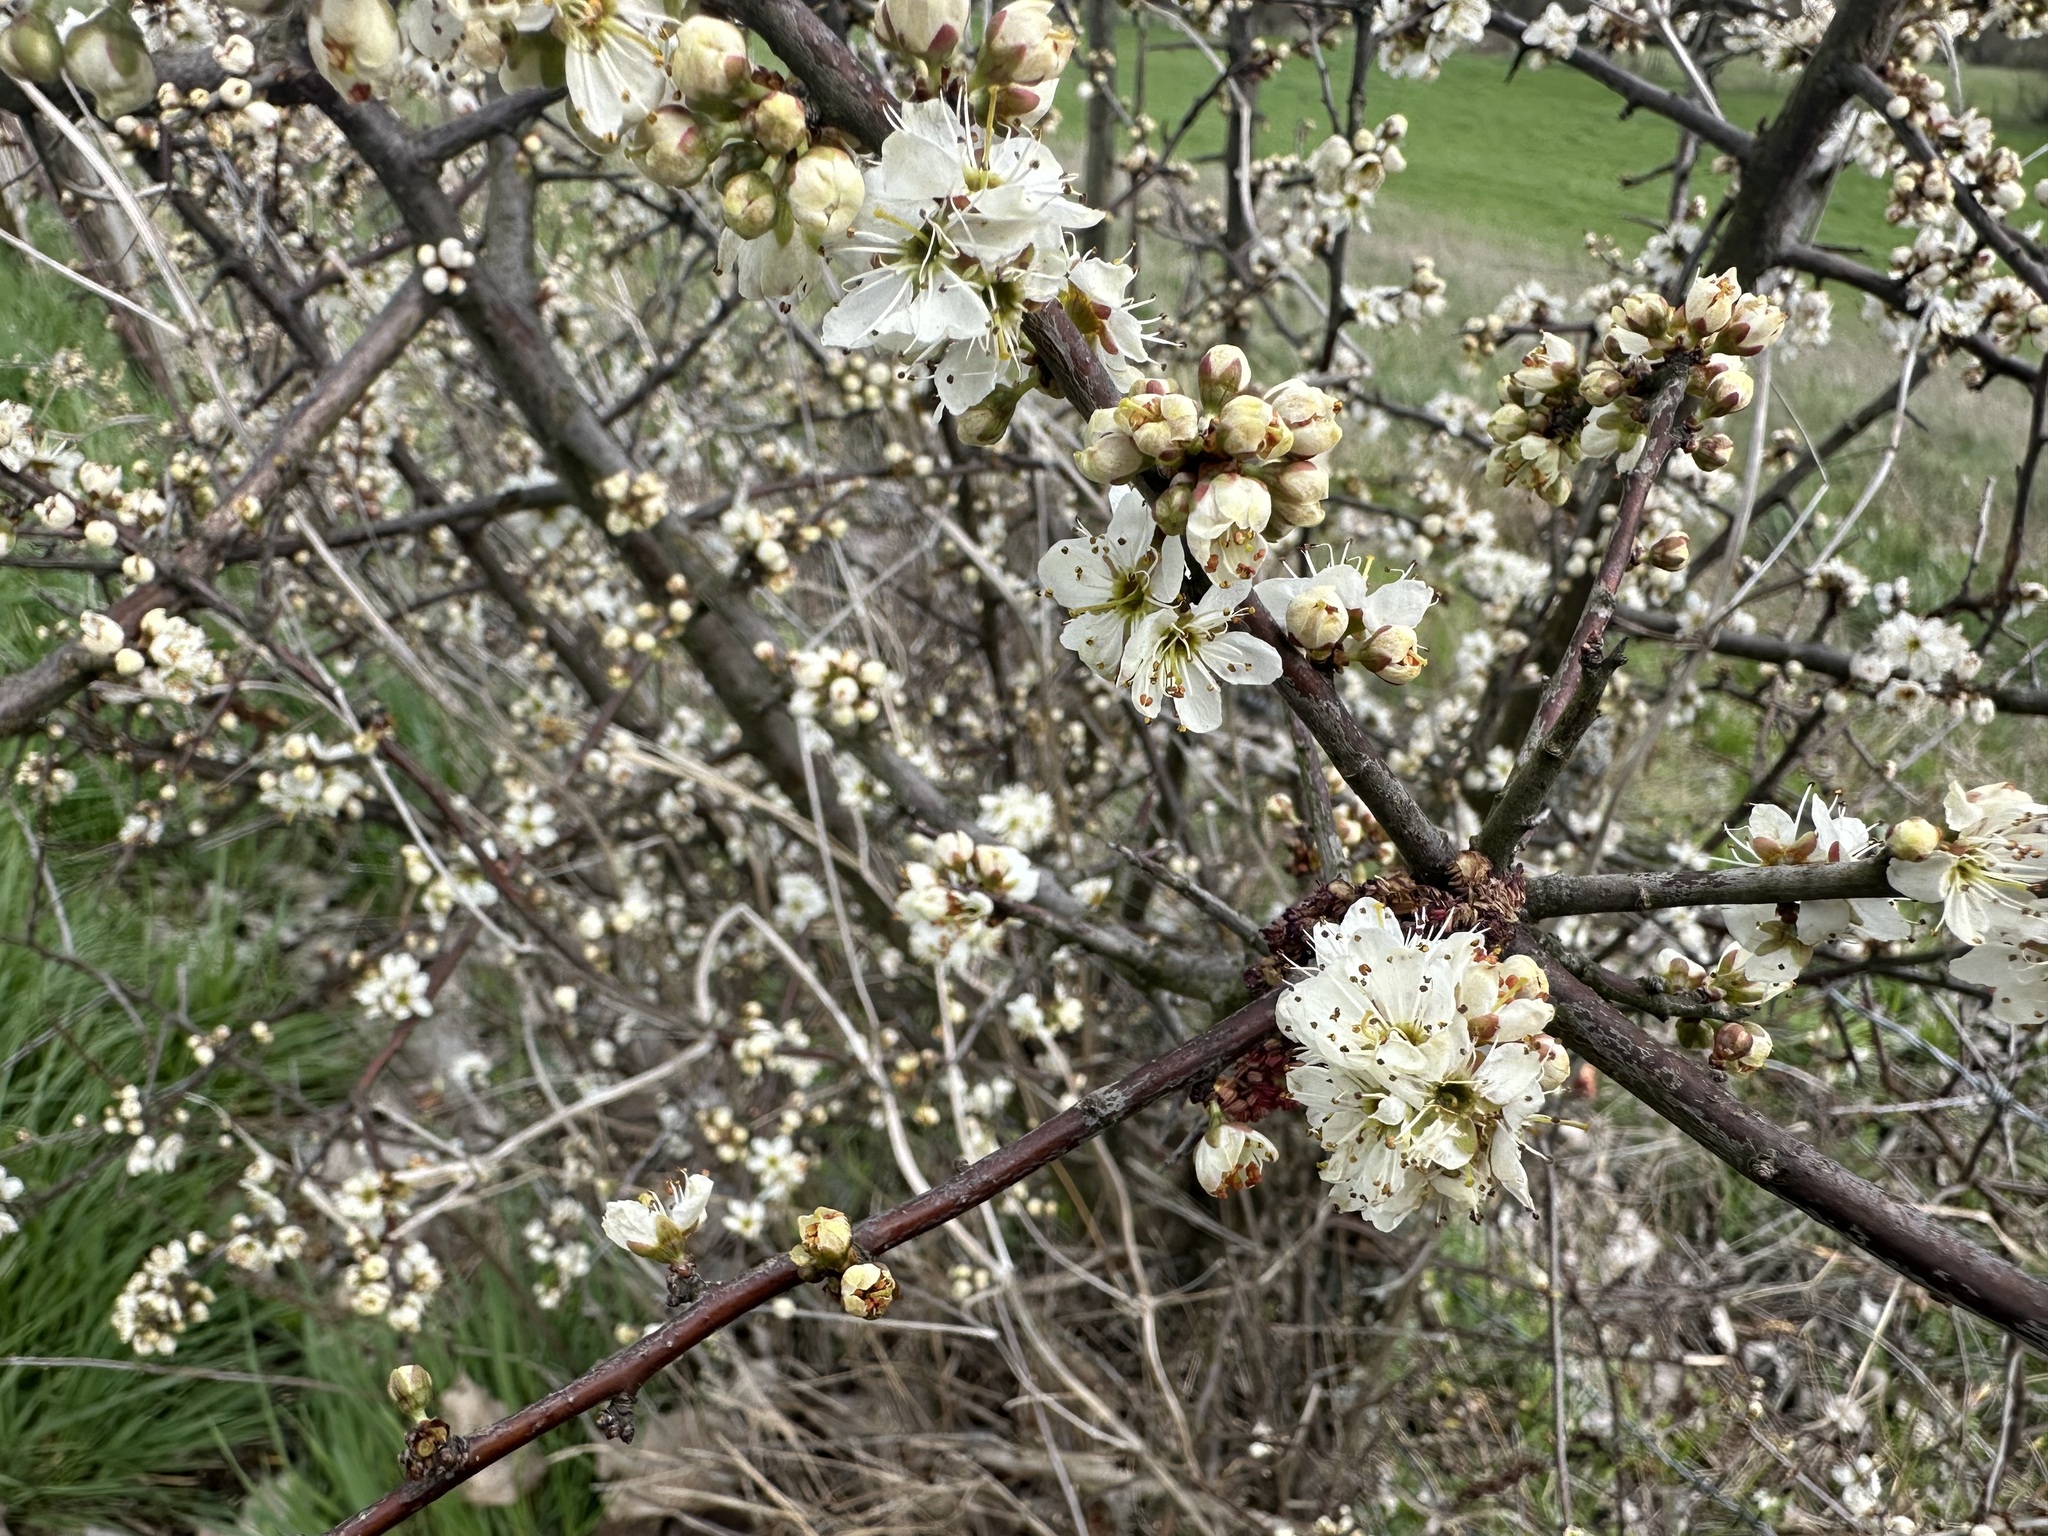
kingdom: Plantae
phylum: Tracheophyta
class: Magnoliopsida
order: Rosales
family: Rosaceae
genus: Prunus
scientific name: Prunus spinosa
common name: Blackthorn
